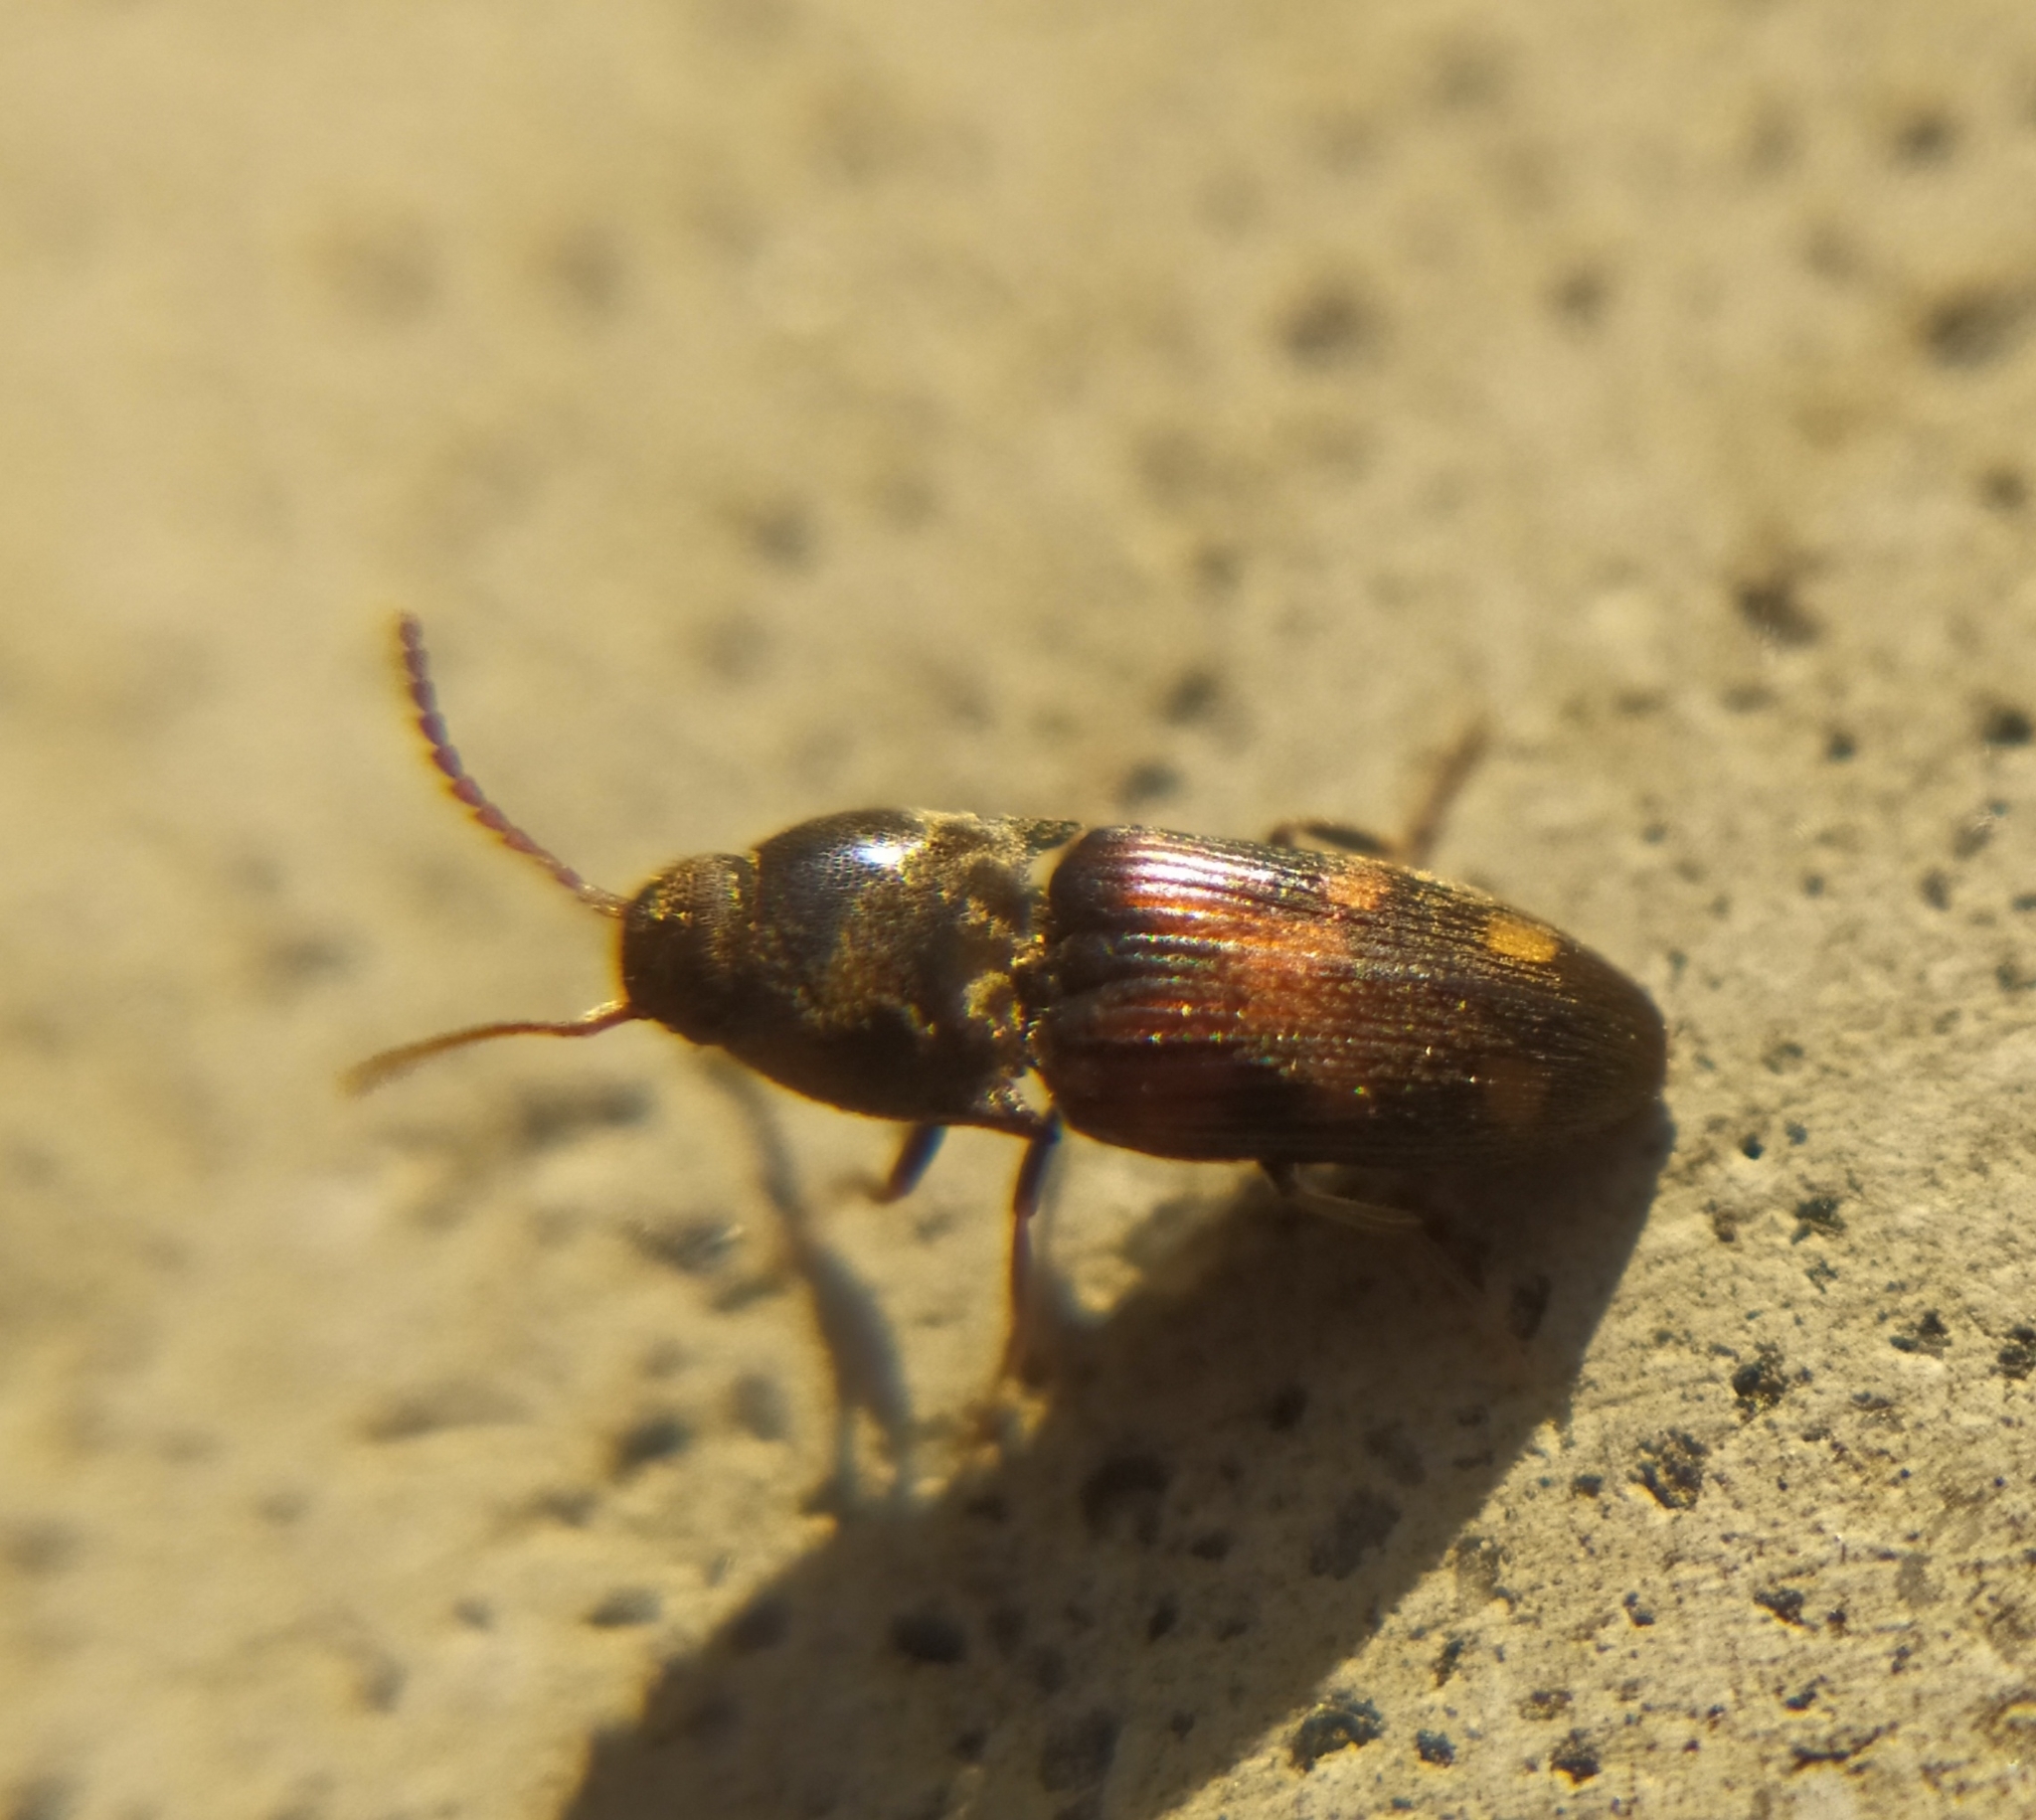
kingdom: Animalia
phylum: Arthropoda
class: Insecta
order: Coleoptera
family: Elateridae
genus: Drasterius
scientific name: Drasterius bimaculatus
